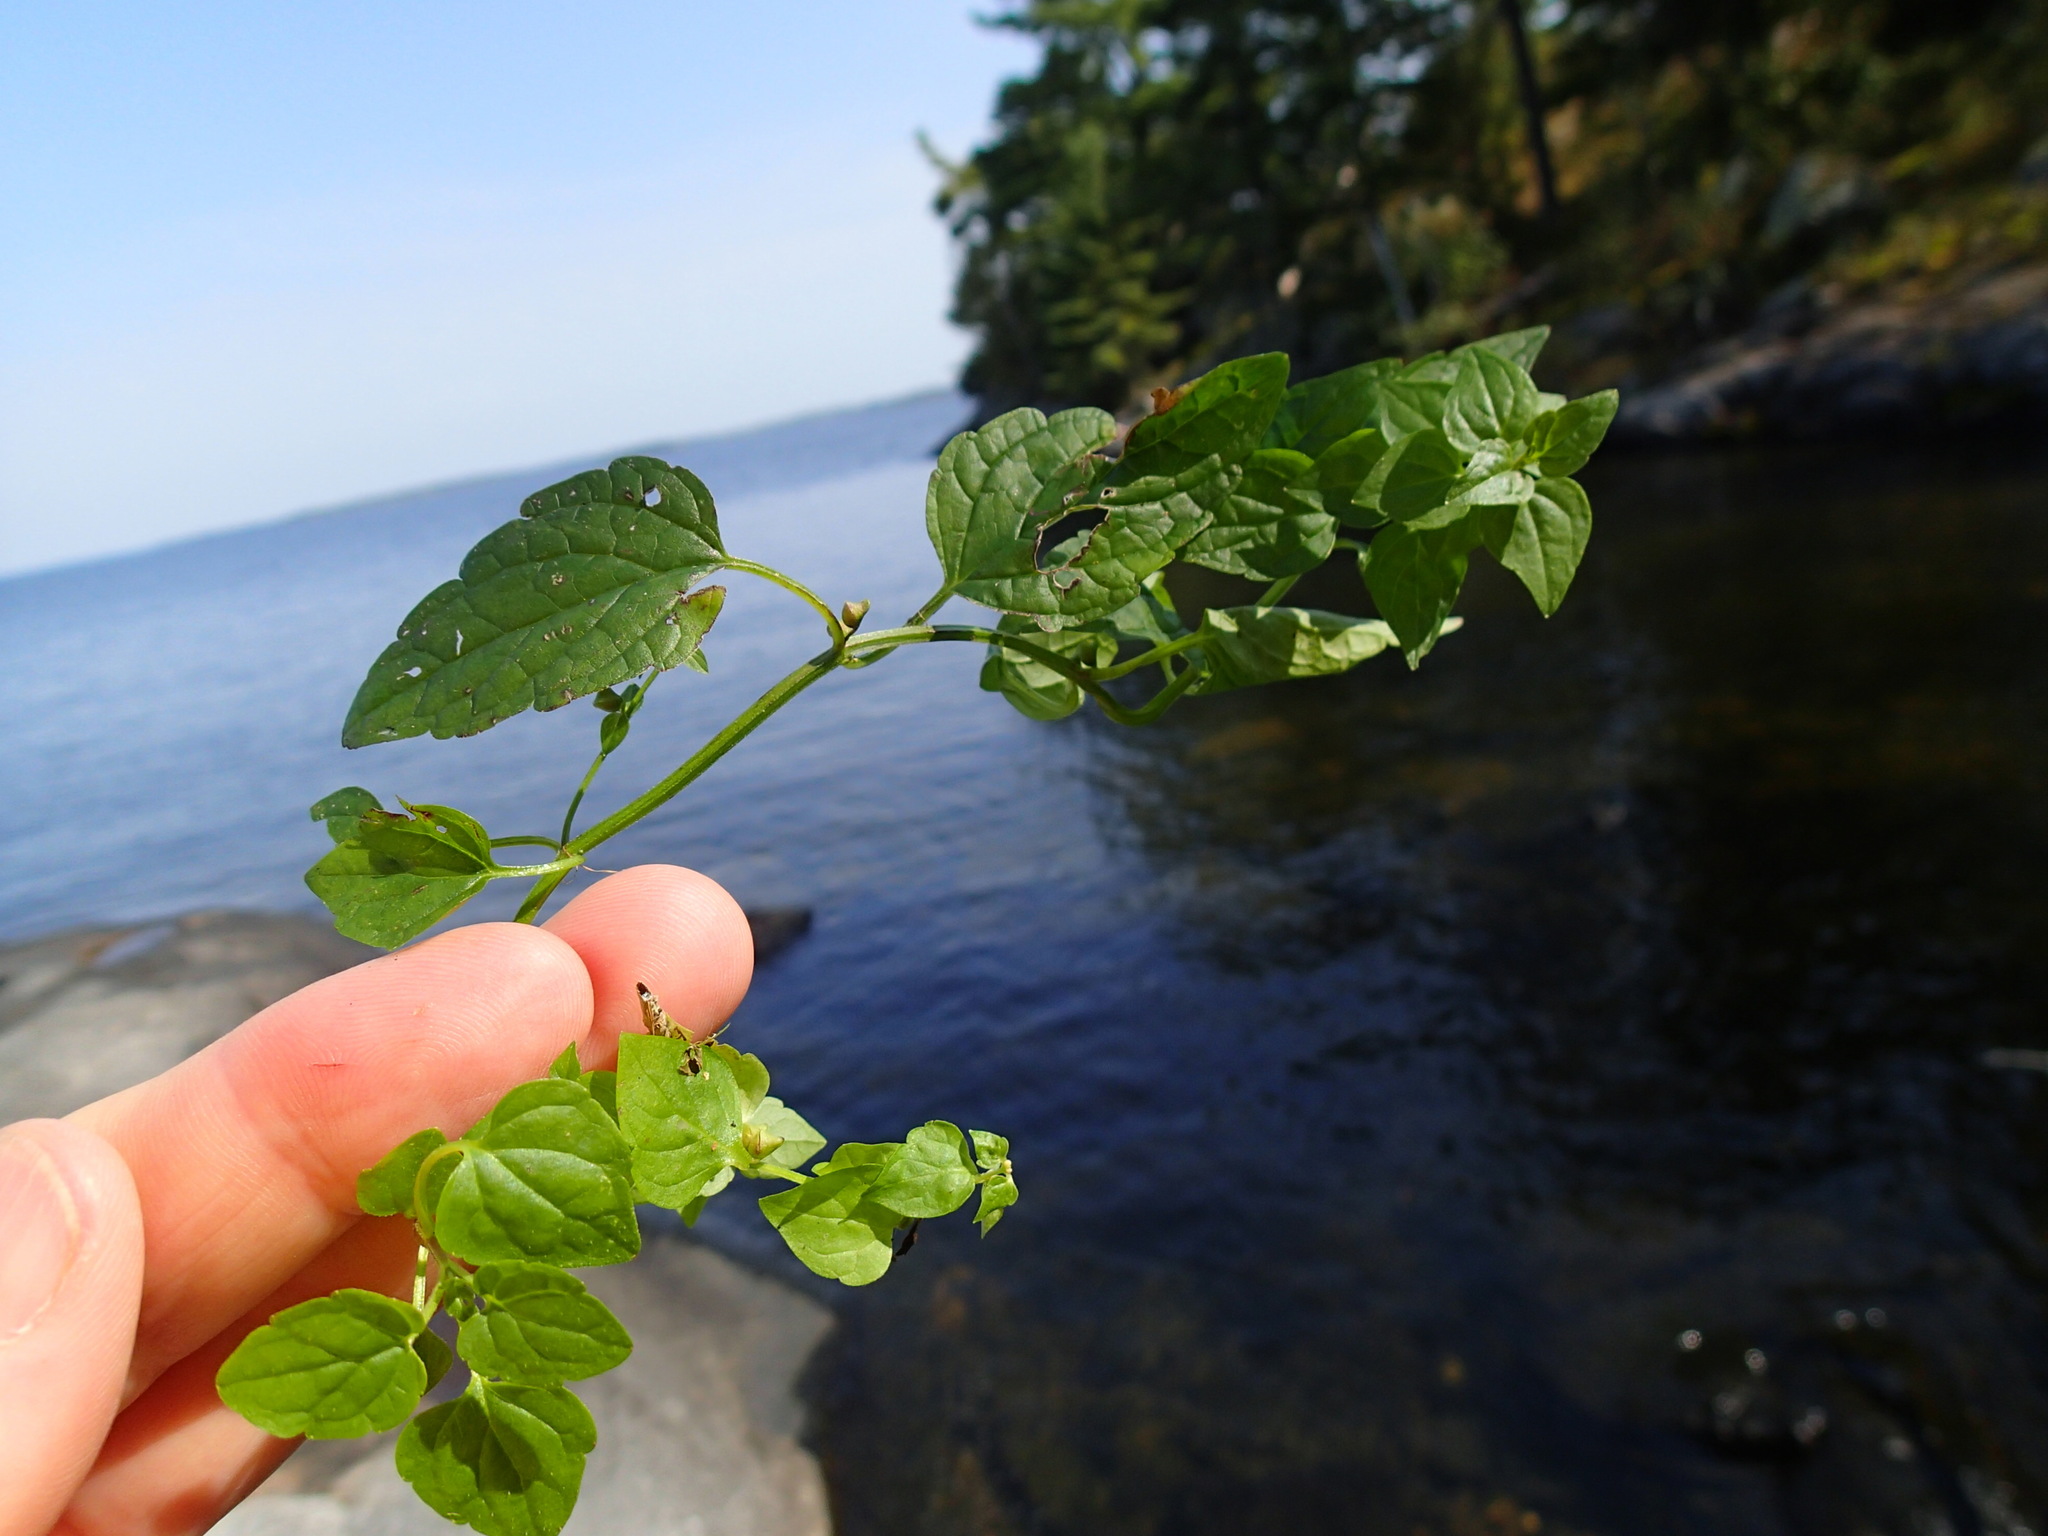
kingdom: Plantae
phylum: Tracheophyta
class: Magnoliopsida
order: Lamiales
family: Lamiaceae
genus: Scutellaria
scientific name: Scutellaria lateriflora
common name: Blue skullcap
